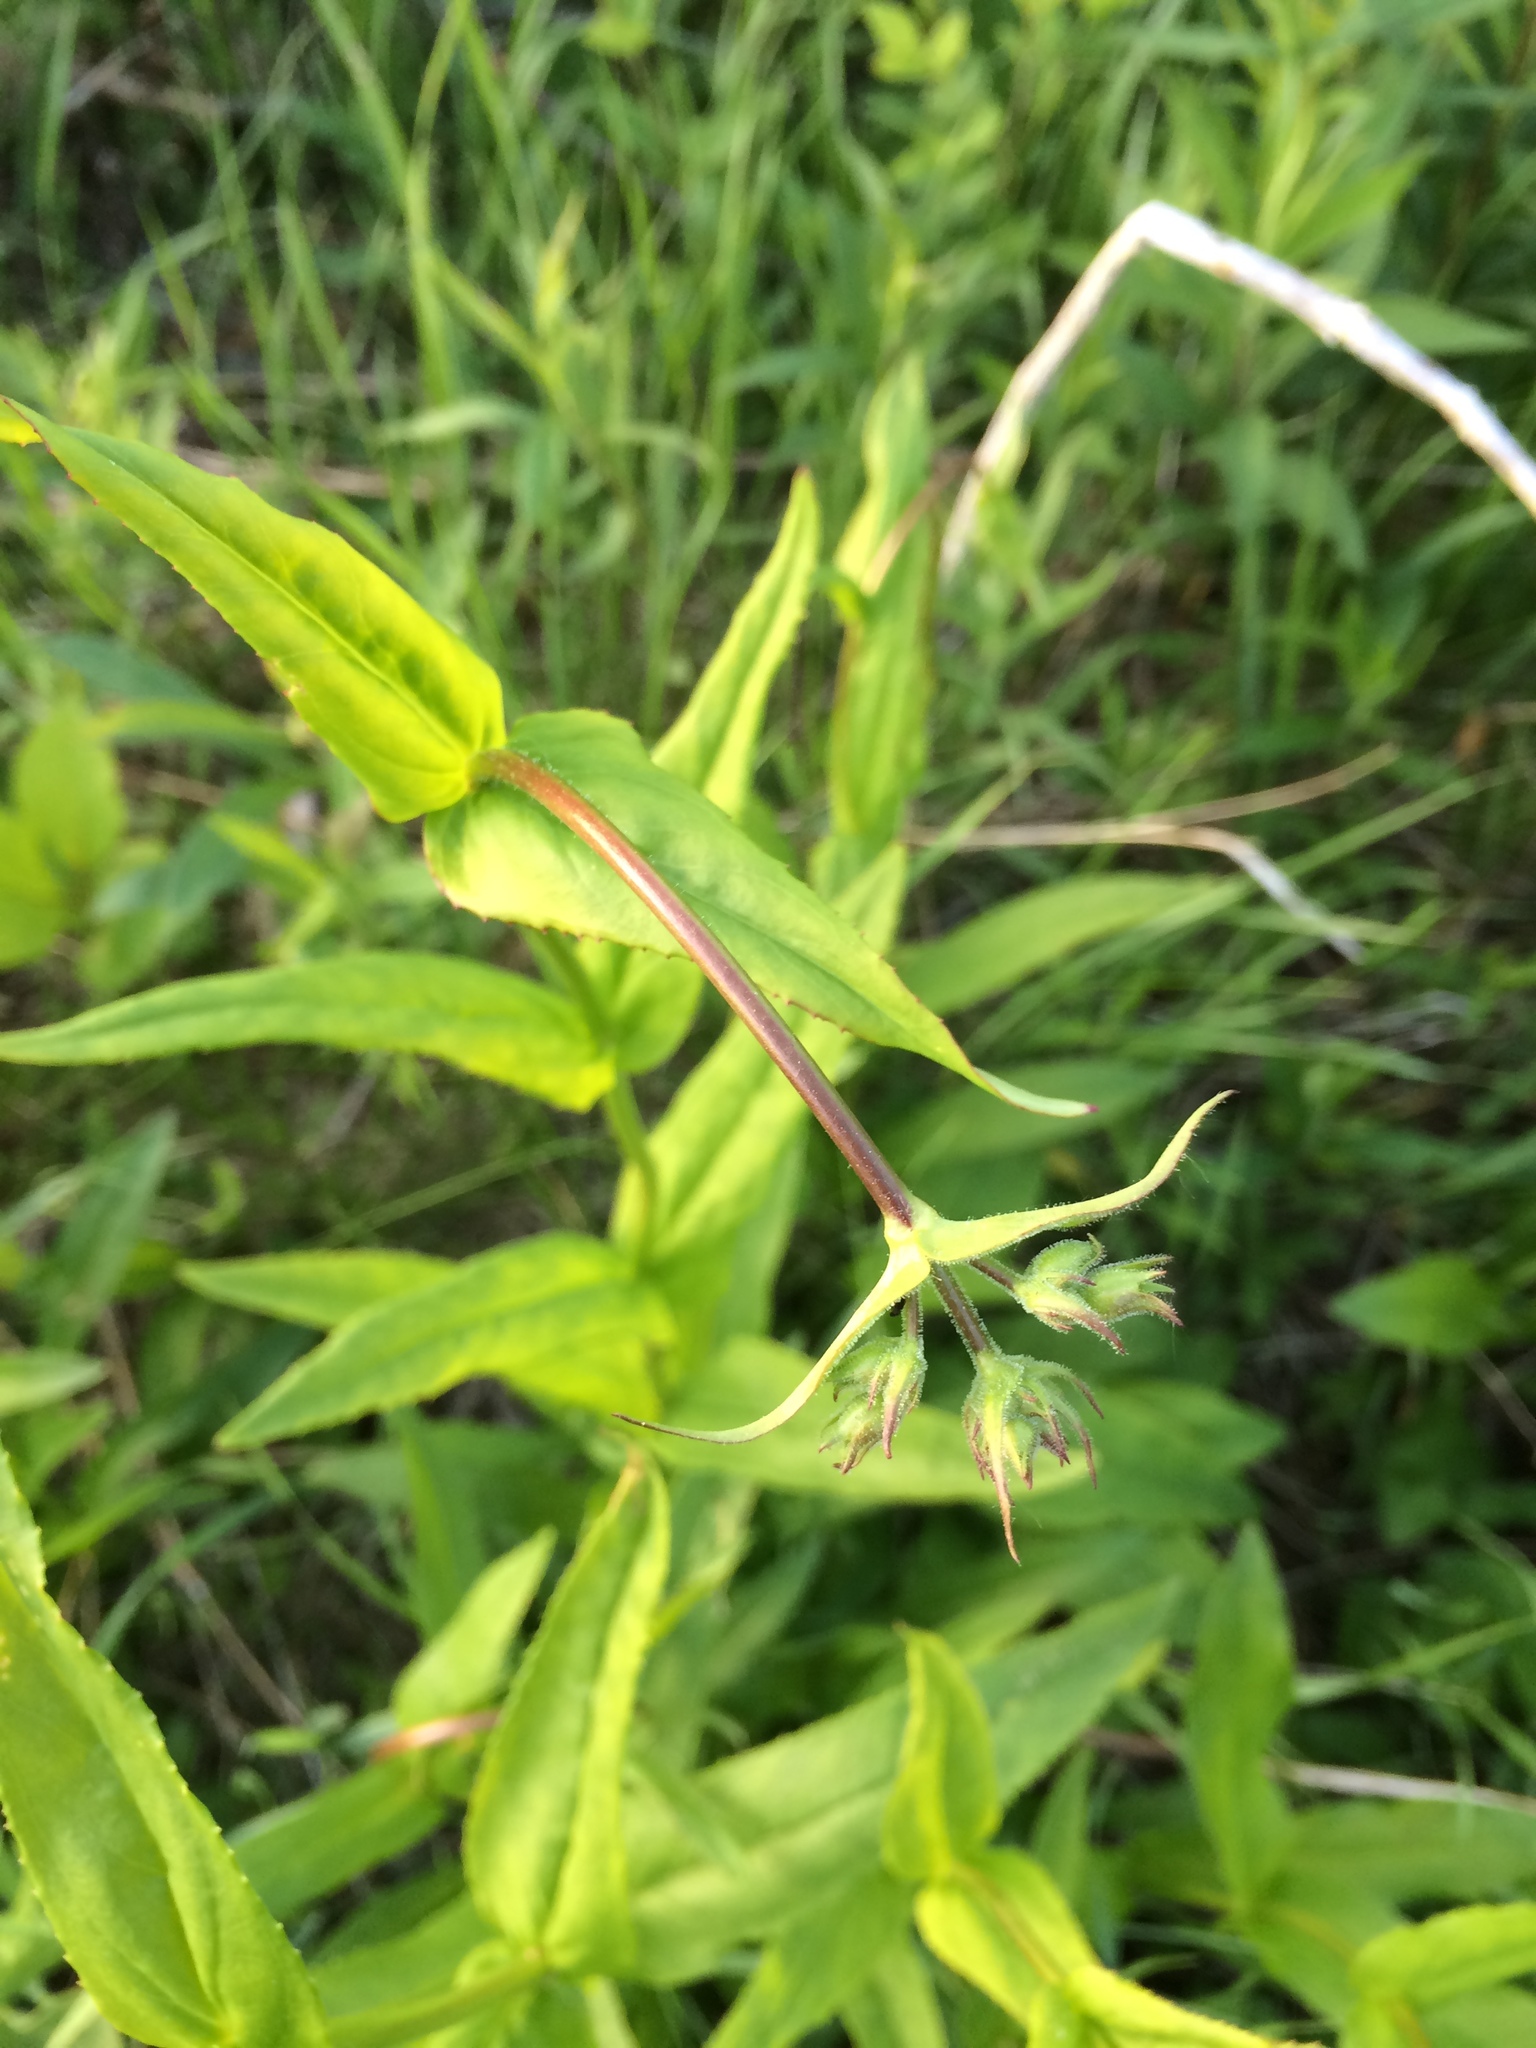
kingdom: Plantae
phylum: Tracheophyta
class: Magnoliopsida
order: Lamiales
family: Plantaginaceae
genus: Penstemon
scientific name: Penstemon digitalis
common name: Foxglove beardtongue
